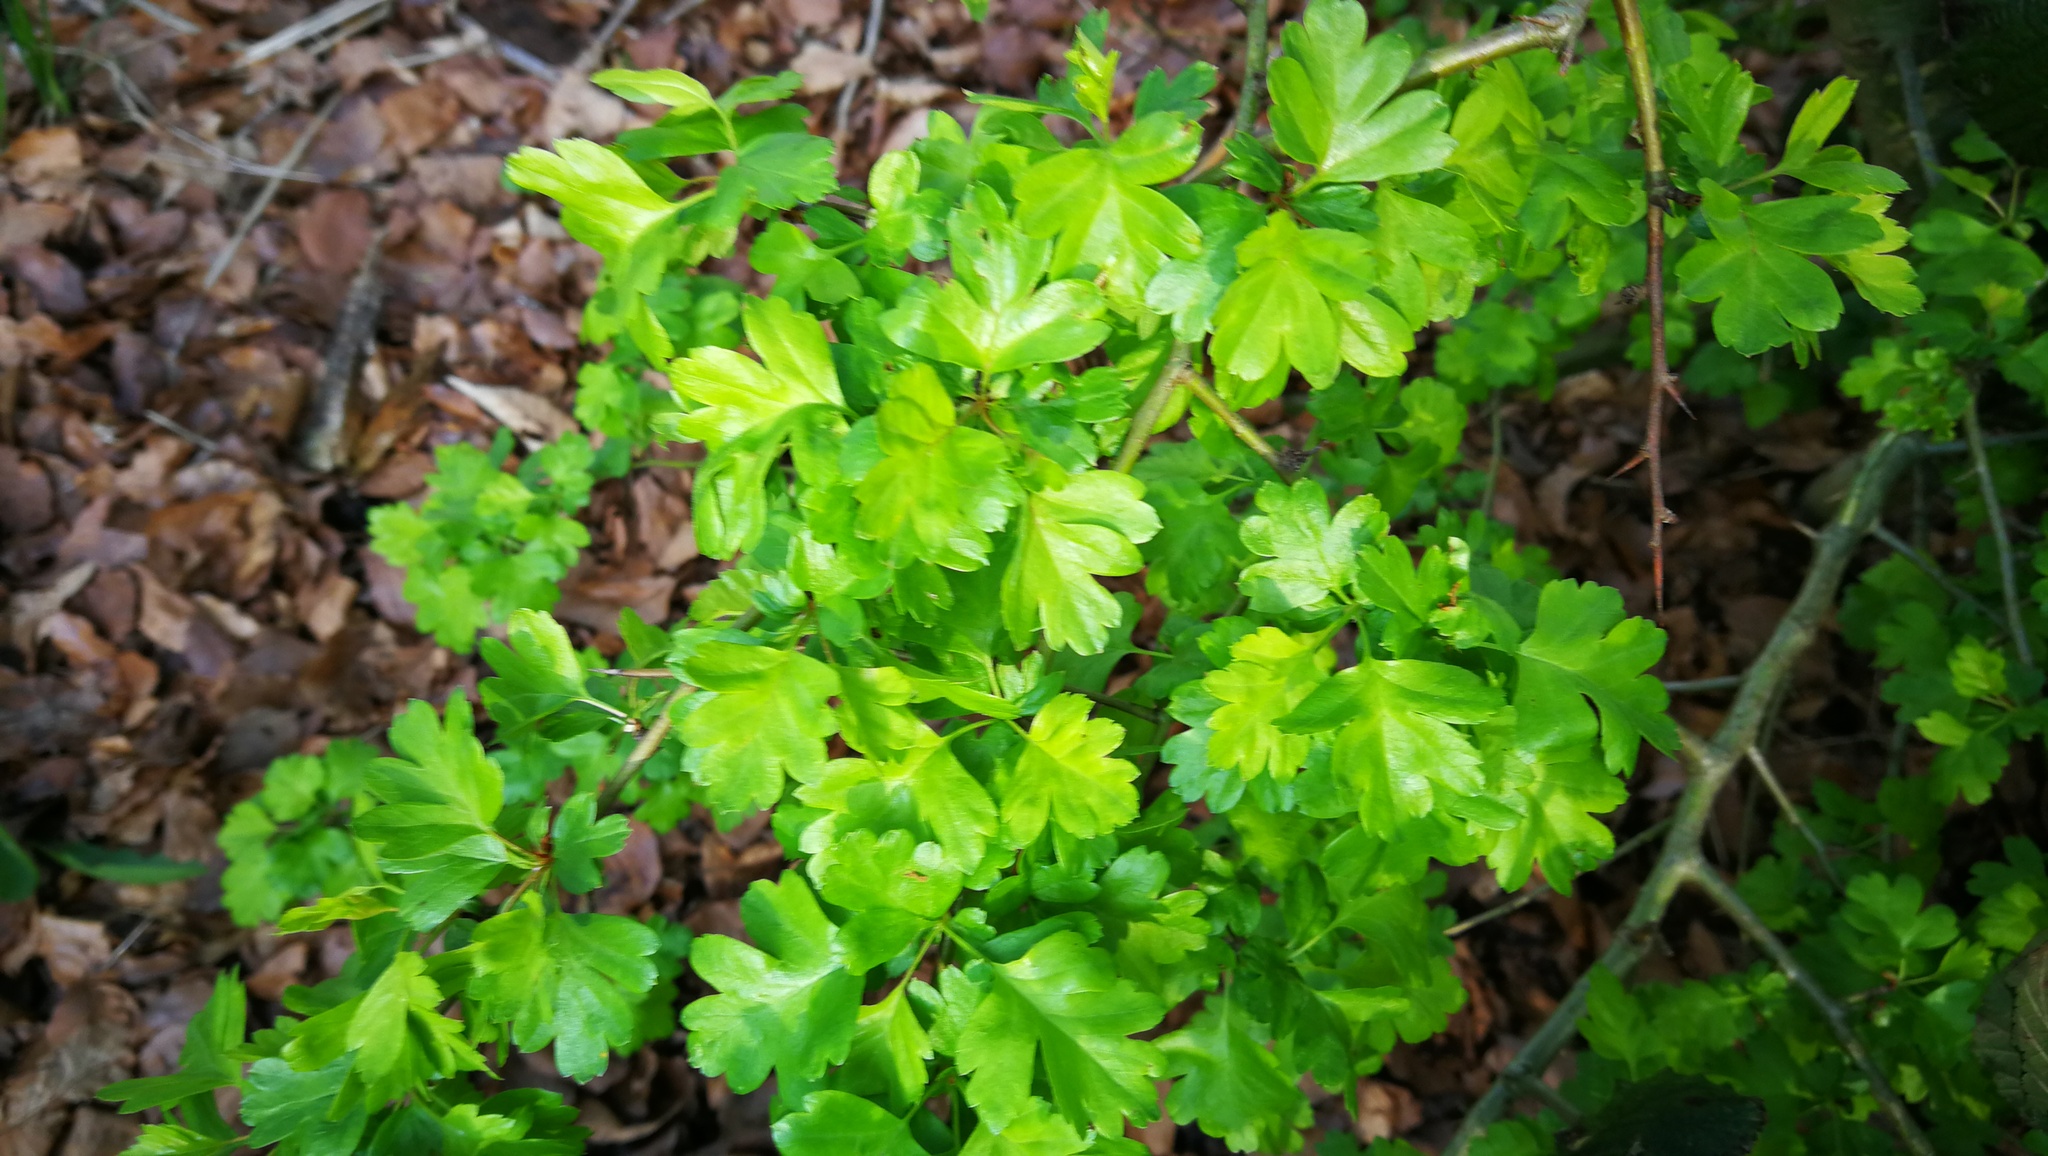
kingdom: Plantae
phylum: Tracheophyta
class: Magnoliopsida
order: Rosales
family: Rosaceae
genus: Crataegus
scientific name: Crataegus monogyna
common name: Hawthorn
